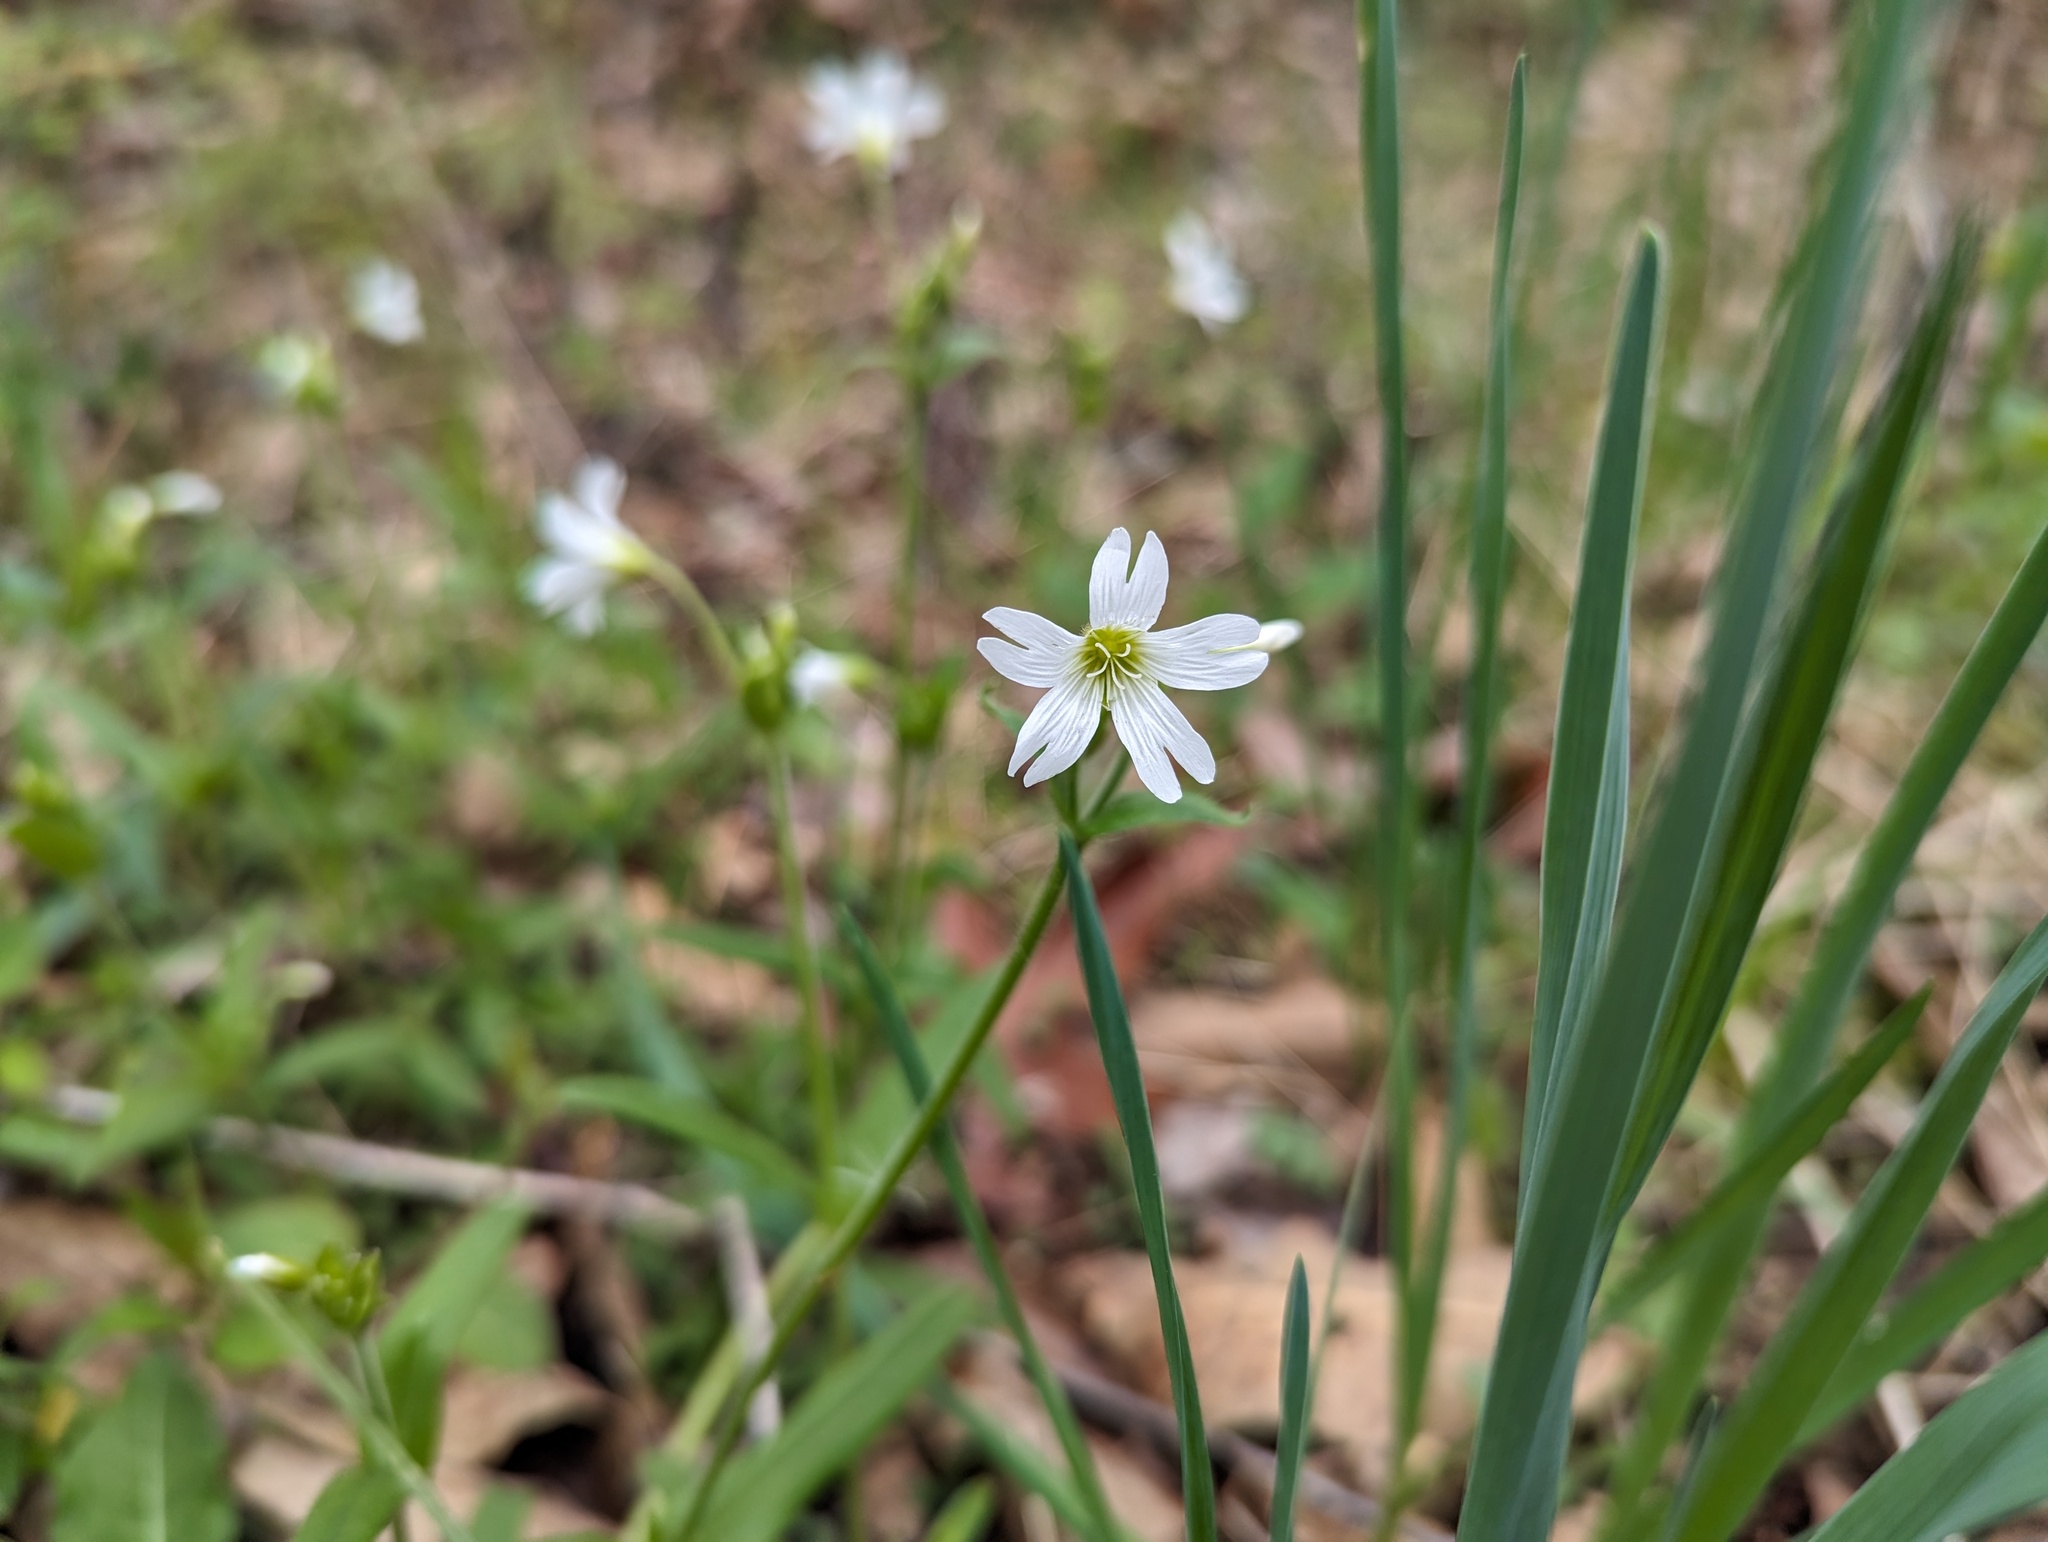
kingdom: Plantae
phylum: Tracheophyta
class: Magnoliopsida
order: Caryophyllales
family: Caryophyllaceae
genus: Cerastium
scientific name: Cerastium velutinum
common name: Barren chickweed
